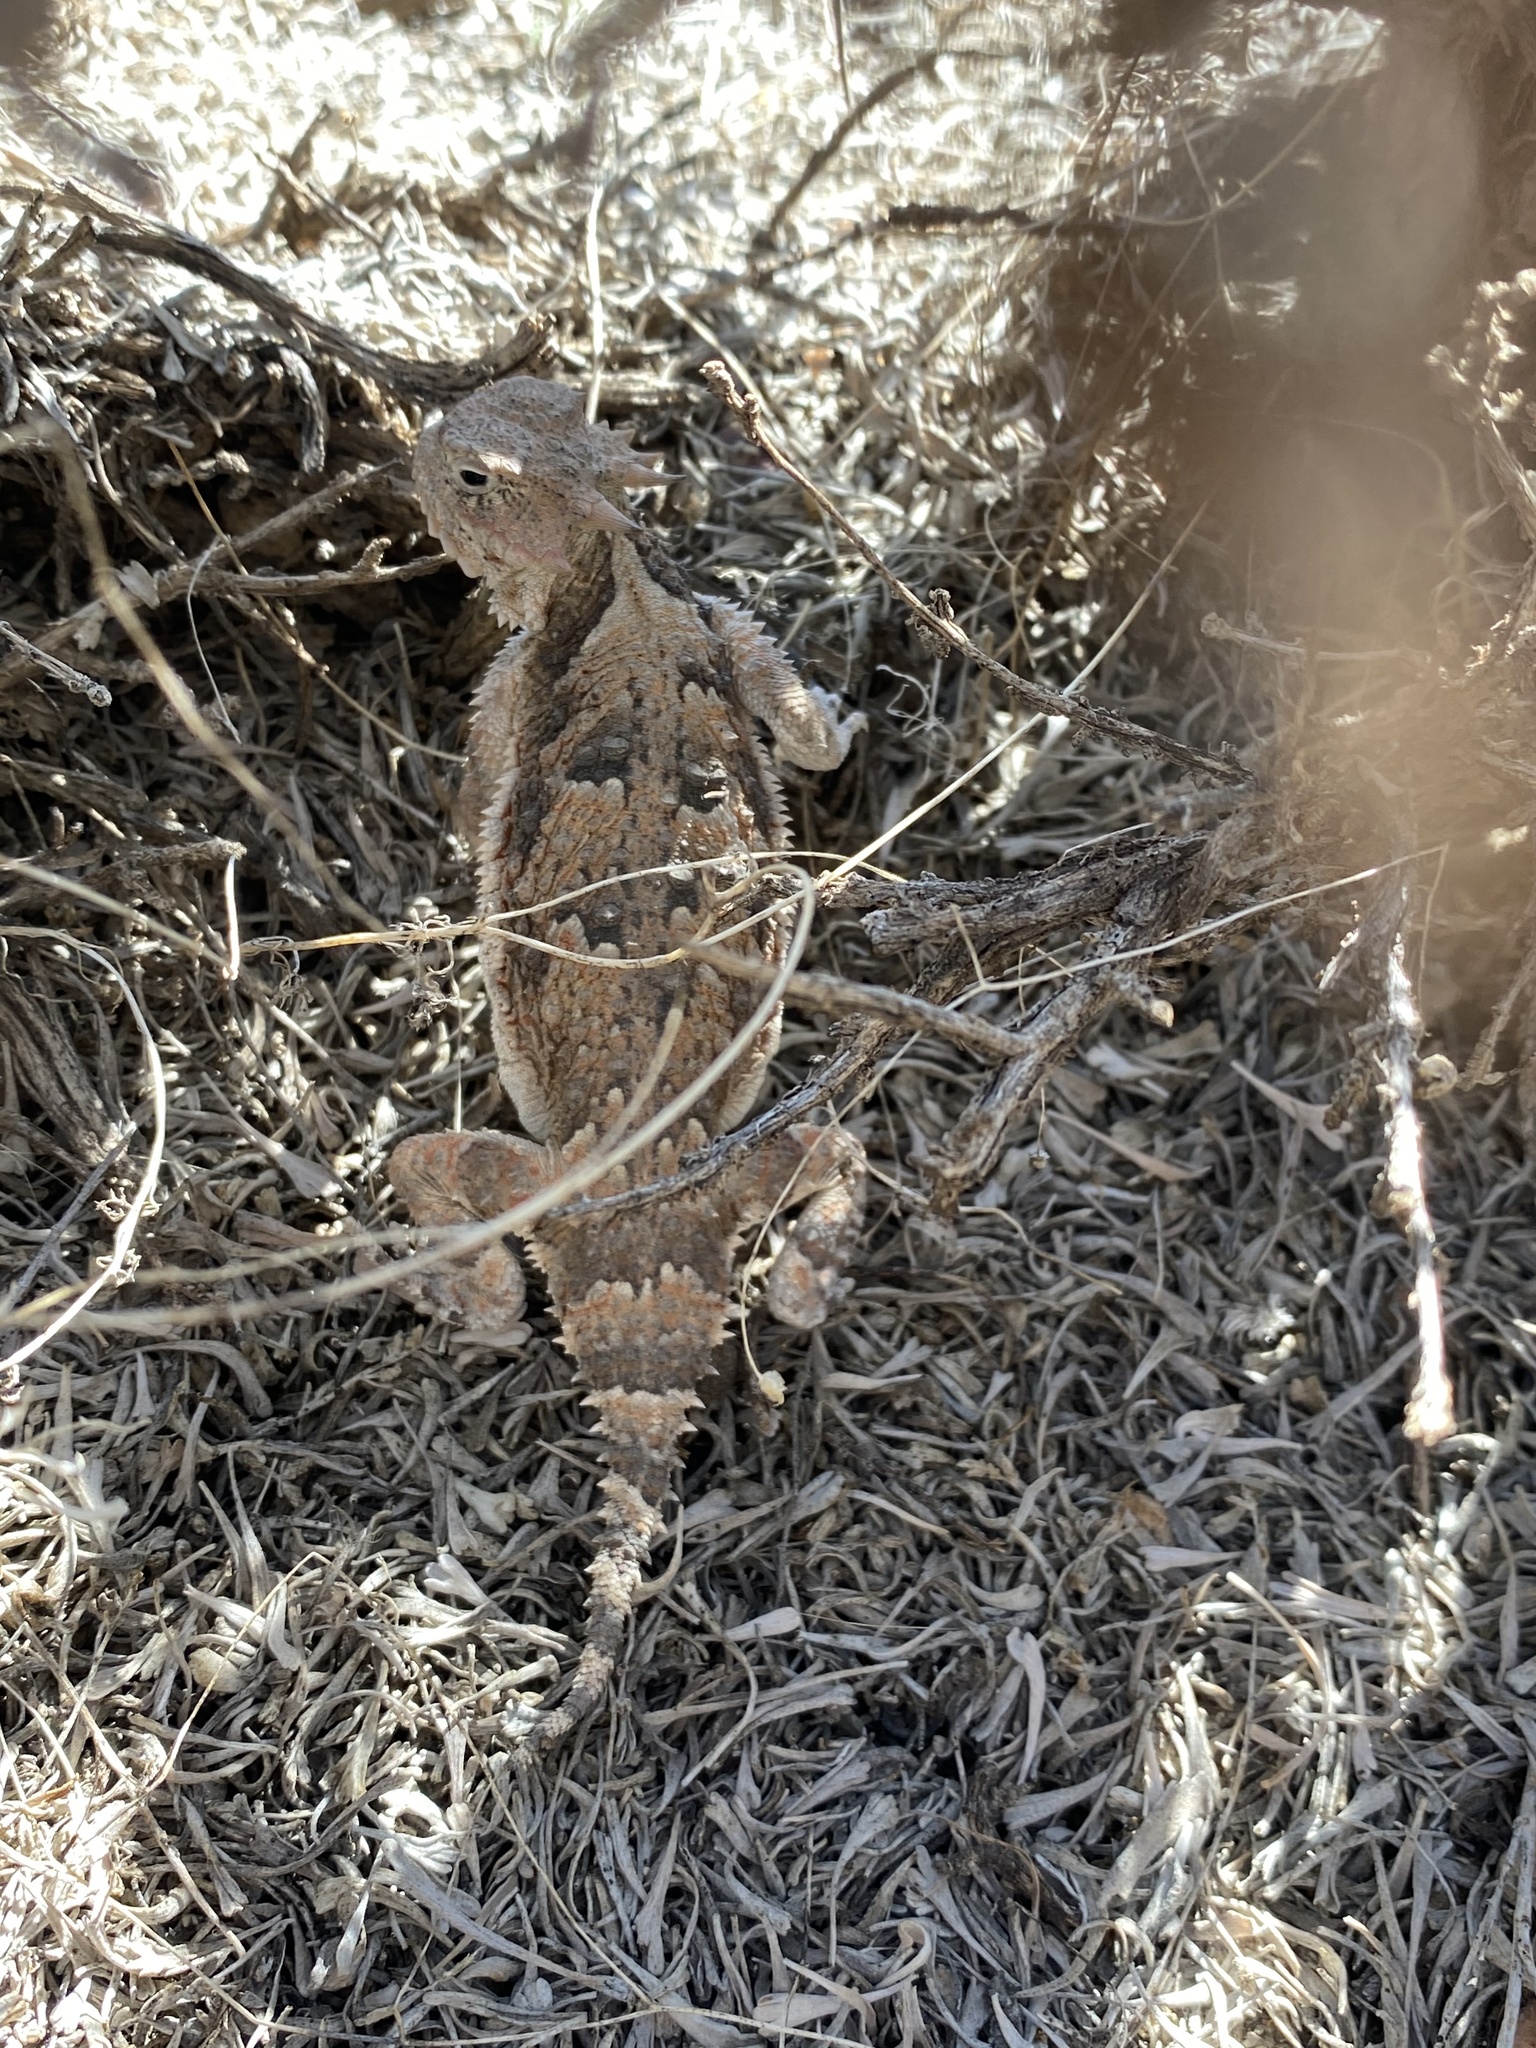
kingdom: Animalia
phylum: Chordata
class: Squamata
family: Phrynosomatidae
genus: Phrynosoma
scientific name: Phrynosoma platyrhinos
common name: Desert horned lizard
